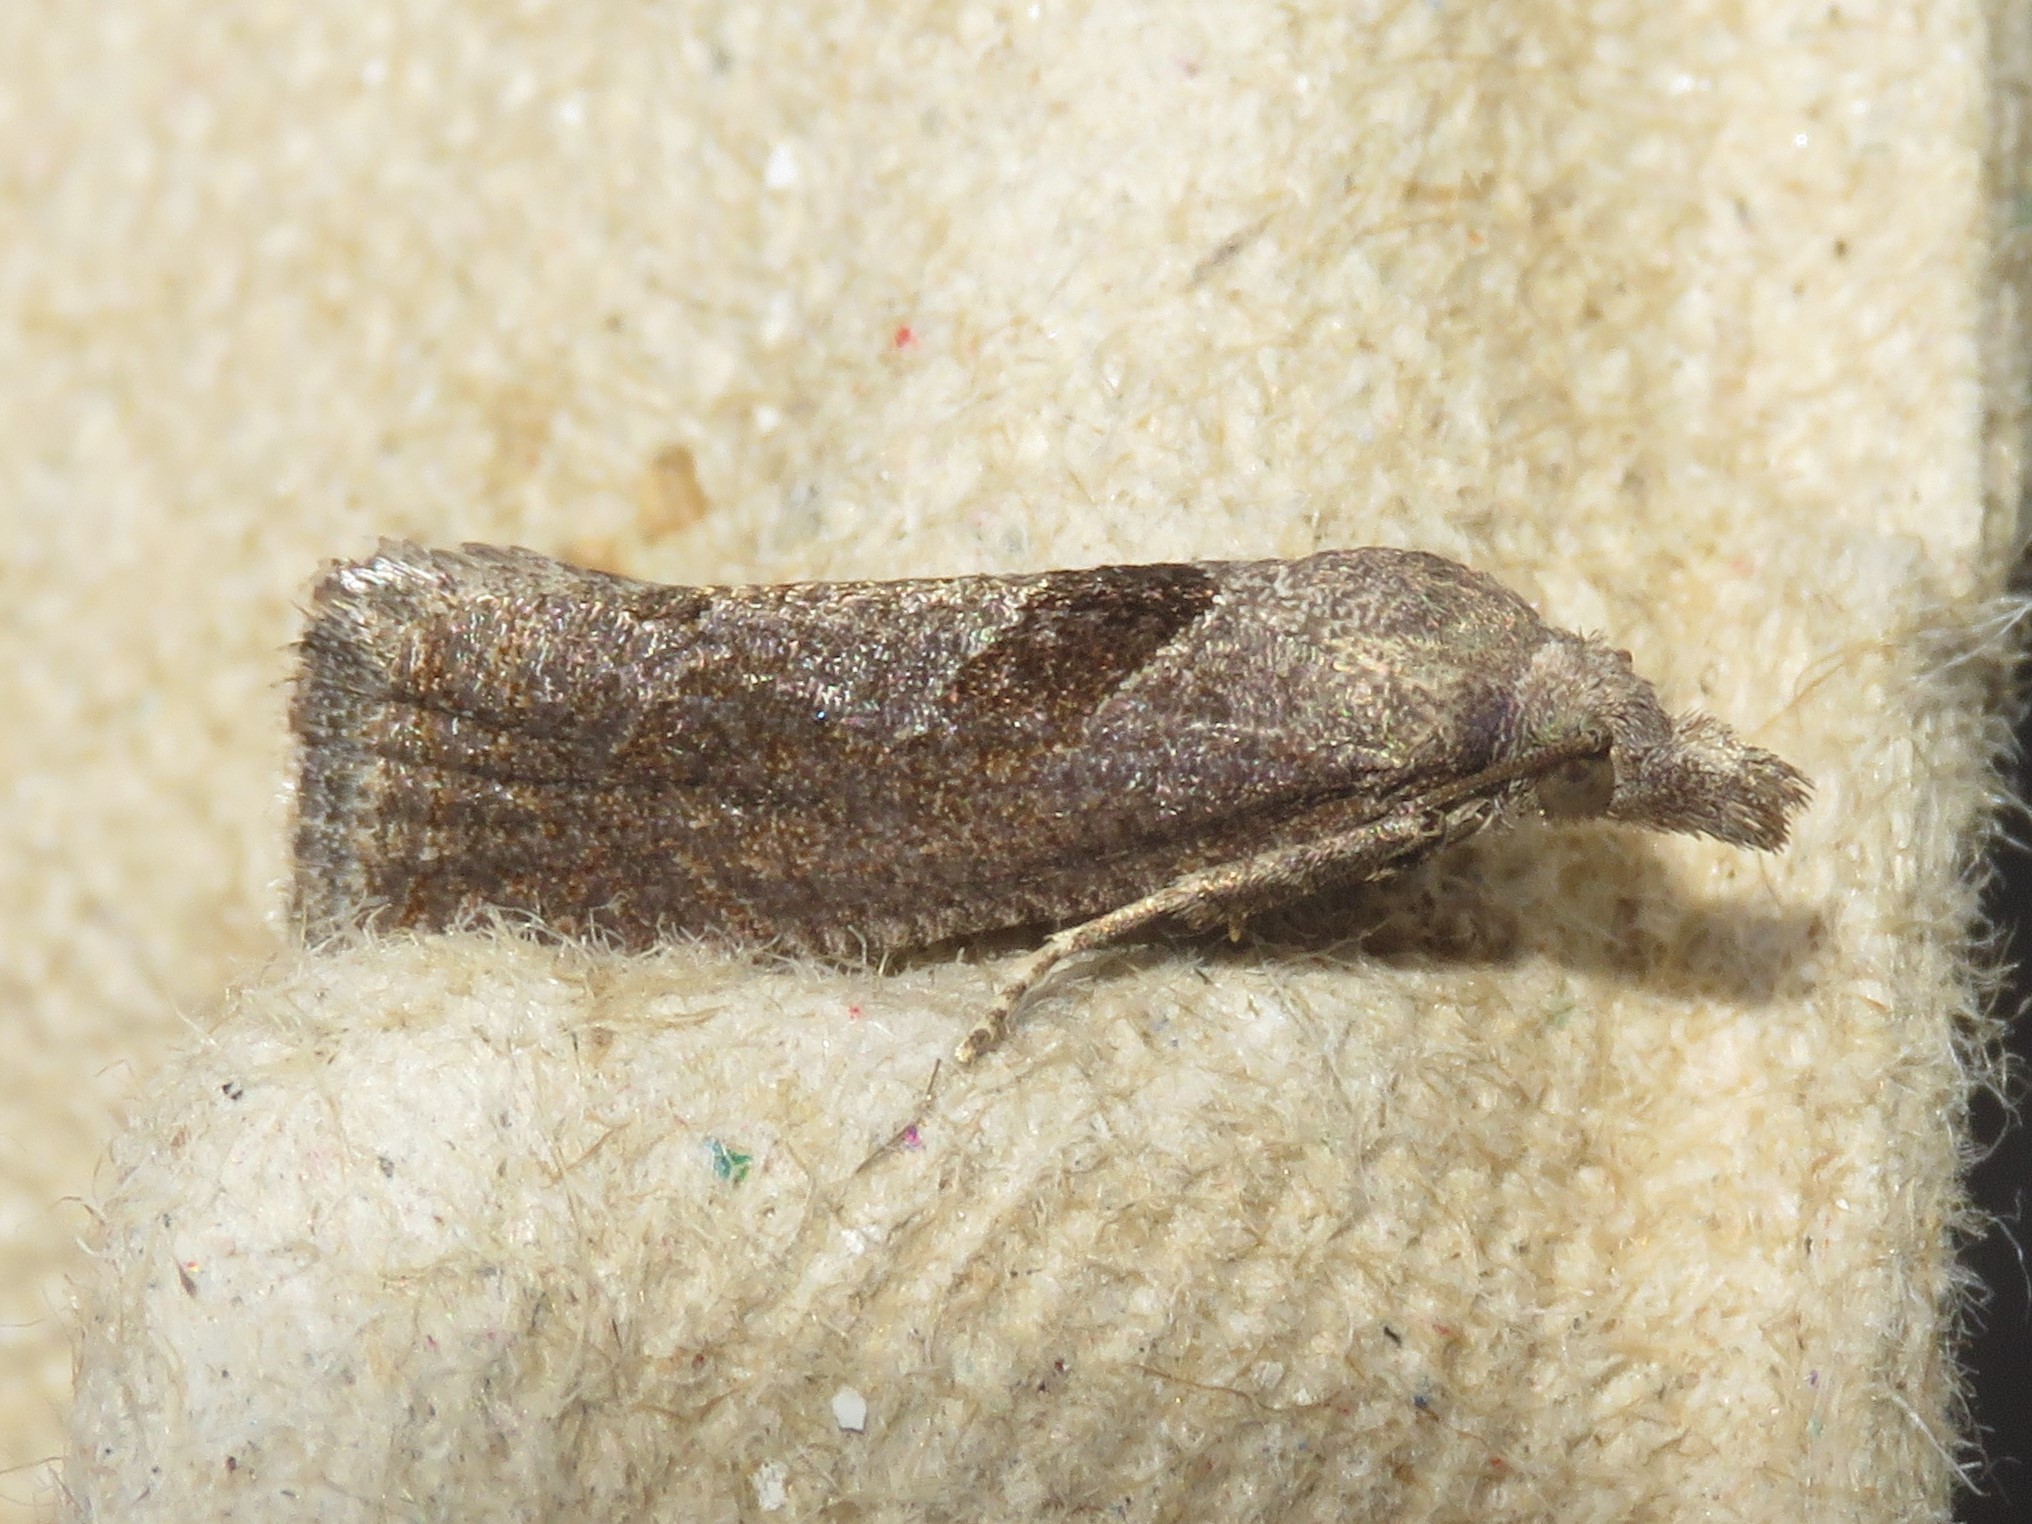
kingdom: Animalia
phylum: Arthropoda
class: Insecta
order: Lepidoptera
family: Tortricidae
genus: Pelochrista
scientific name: Pelochrista similiana
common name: Similar eucosma
